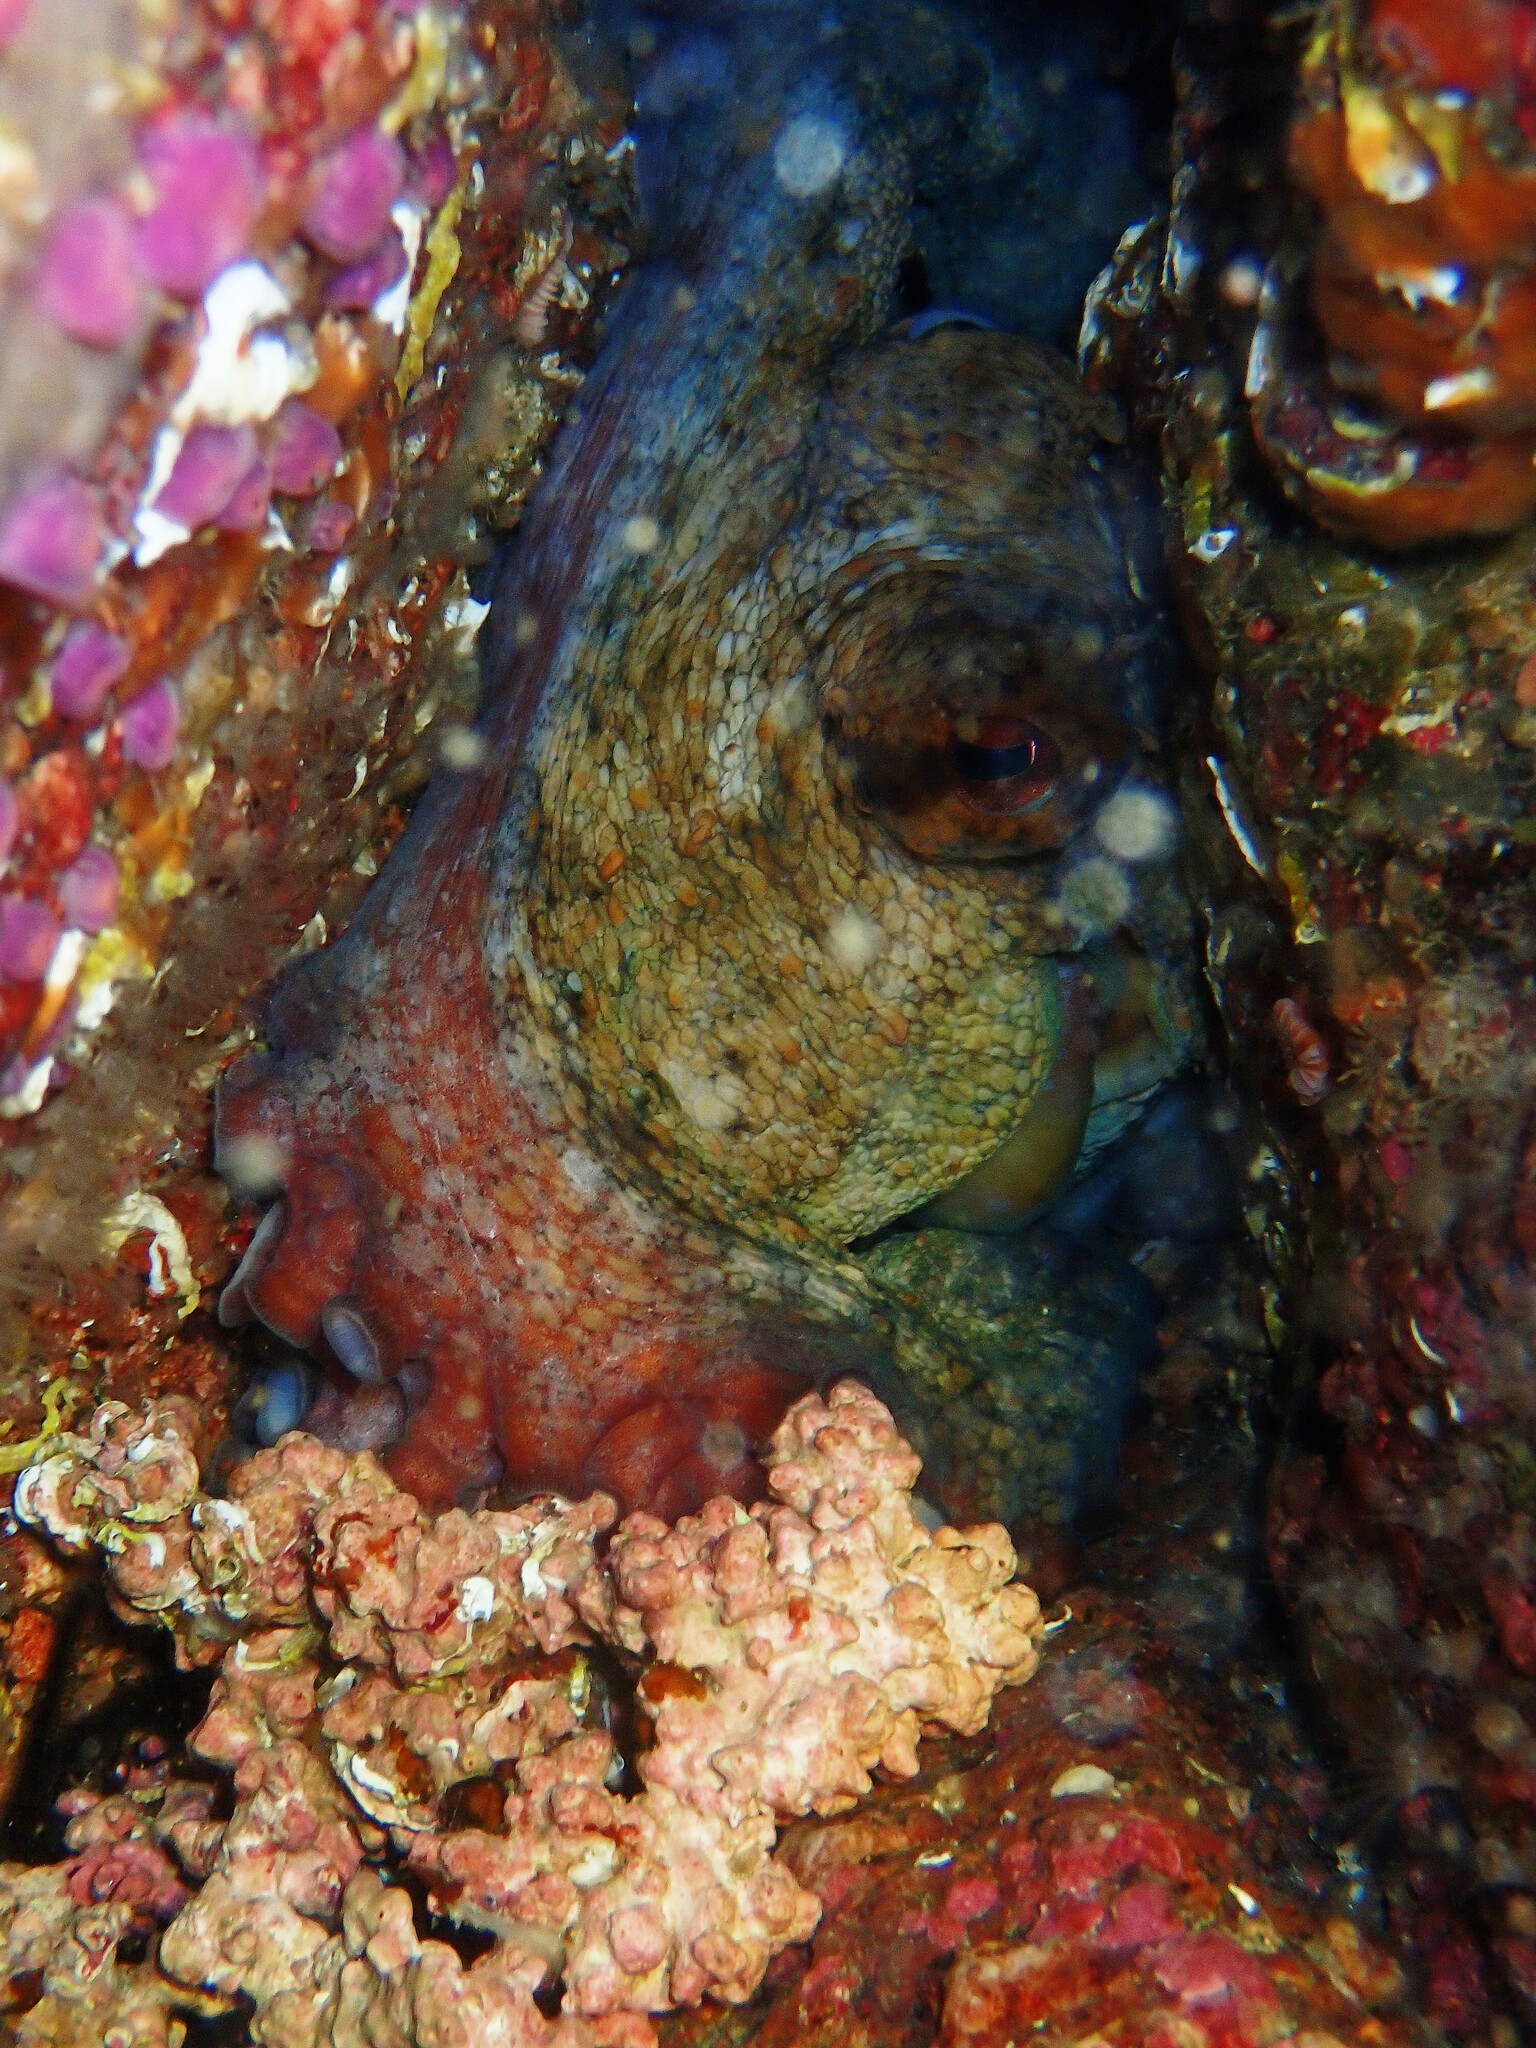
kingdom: Animalia
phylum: Mollusca
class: Cephalopoda
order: Octopoda
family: Octopodidae
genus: Octopus
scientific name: Octopus vulgaris
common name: Common octopus
